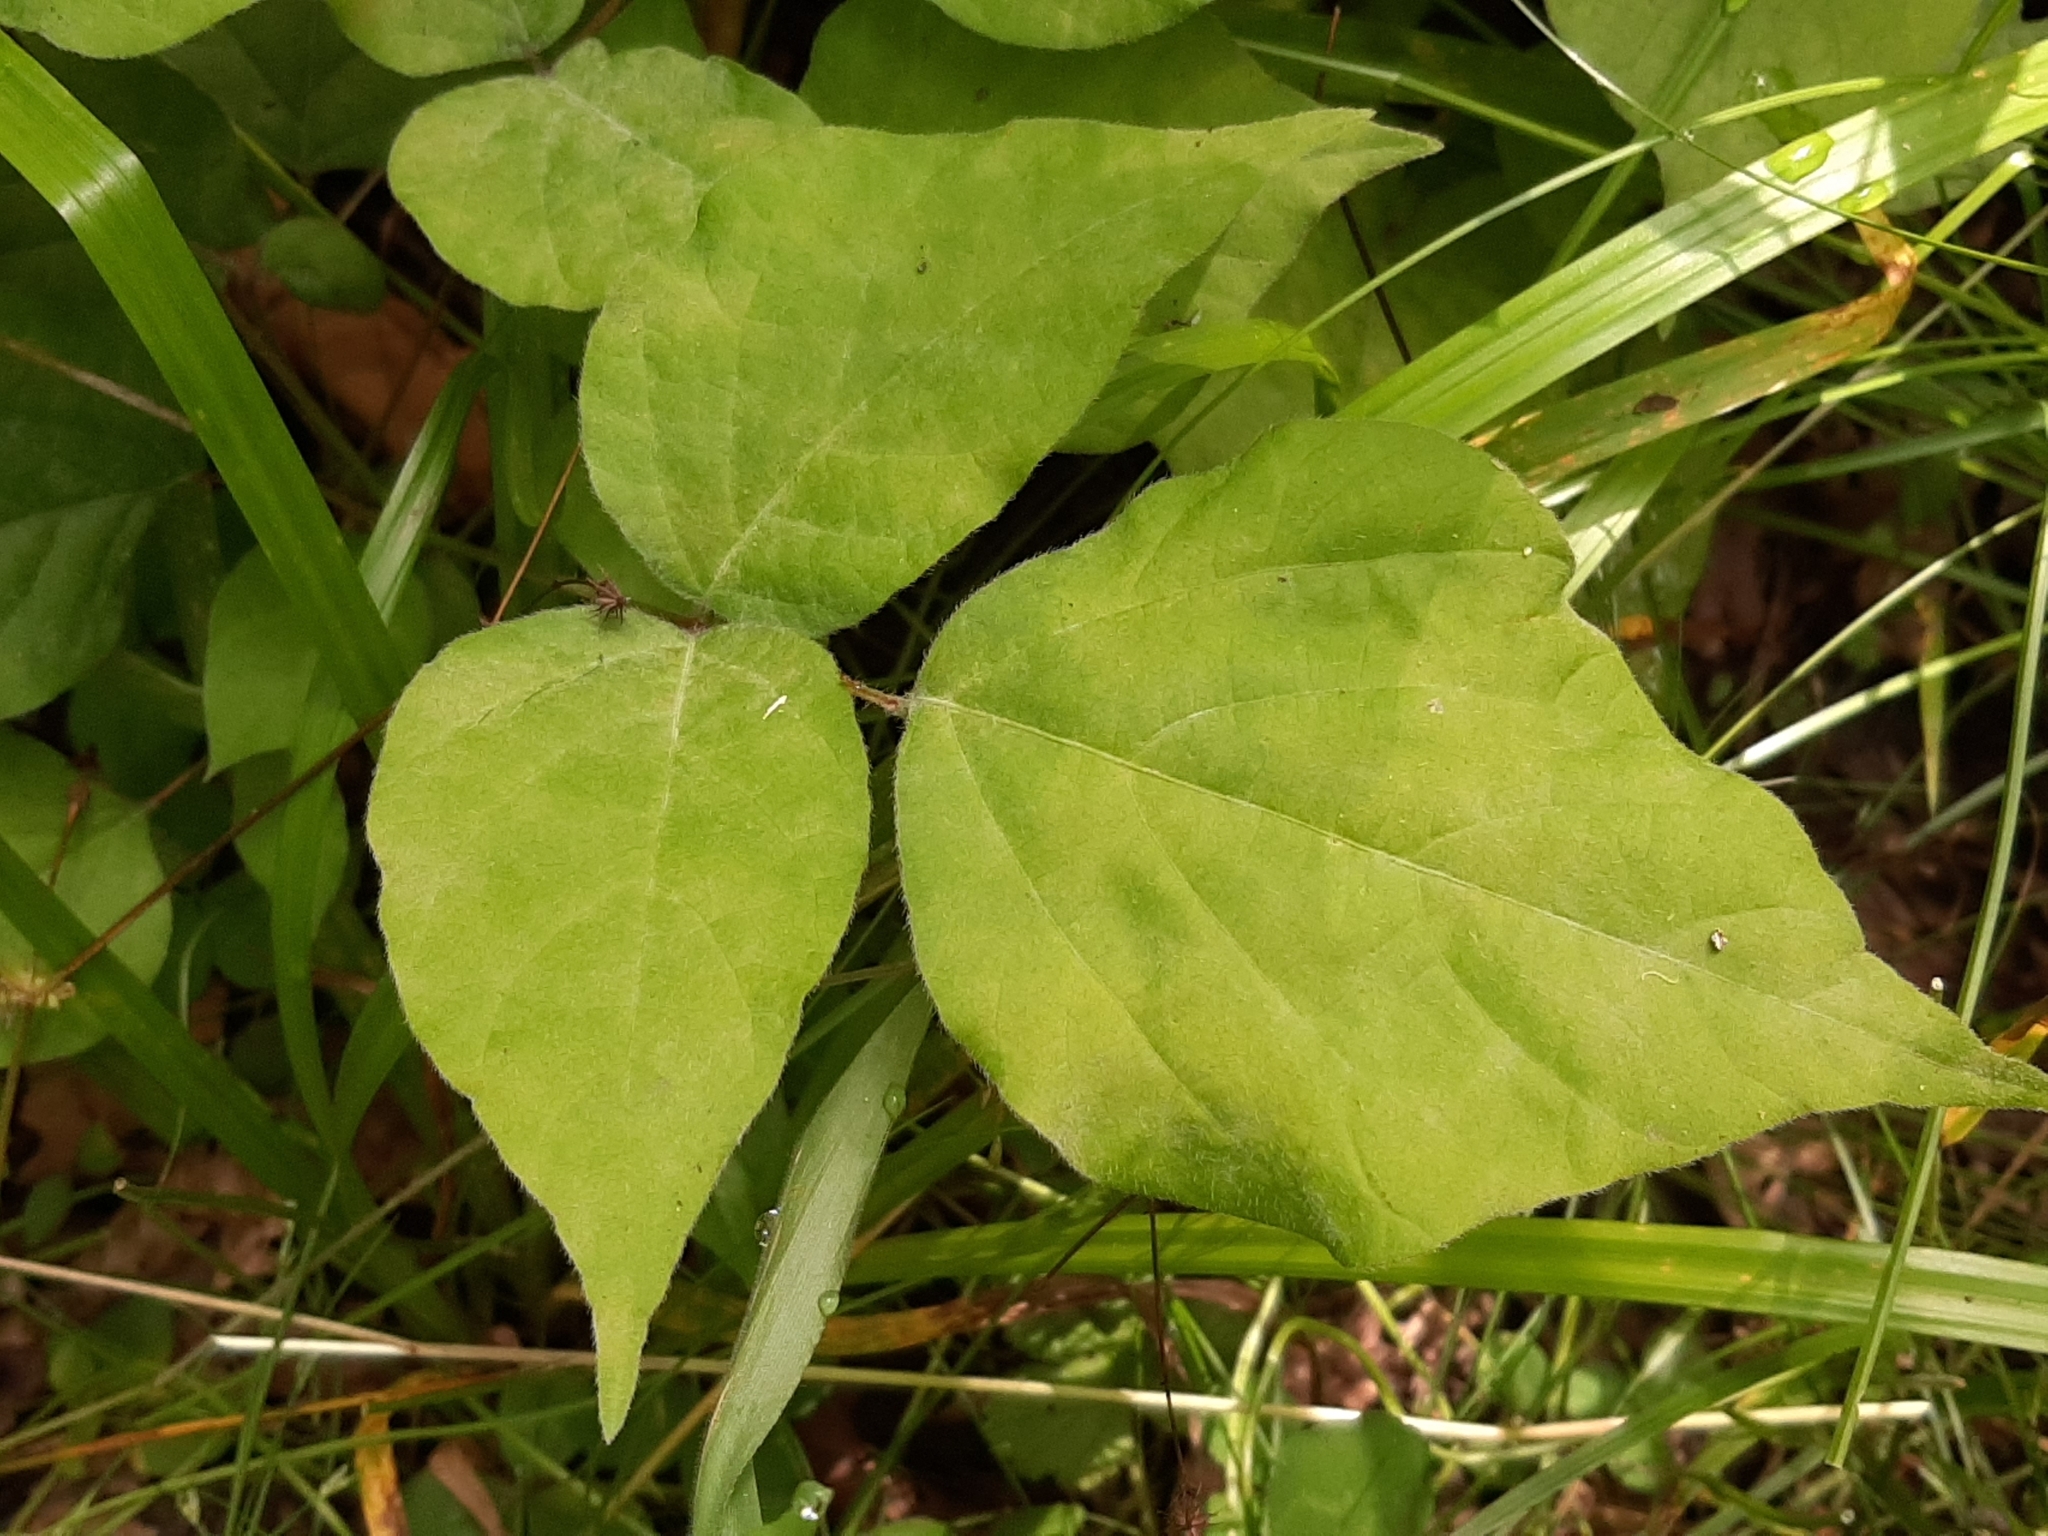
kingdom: Plantae
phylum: Tracheophyta
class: Magnoliopsida
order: Fabales
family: Fabaceae
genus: Hylodesmum
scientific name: Hylodesmum glutinosum
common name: Clustered-leaved tick-trefoil
